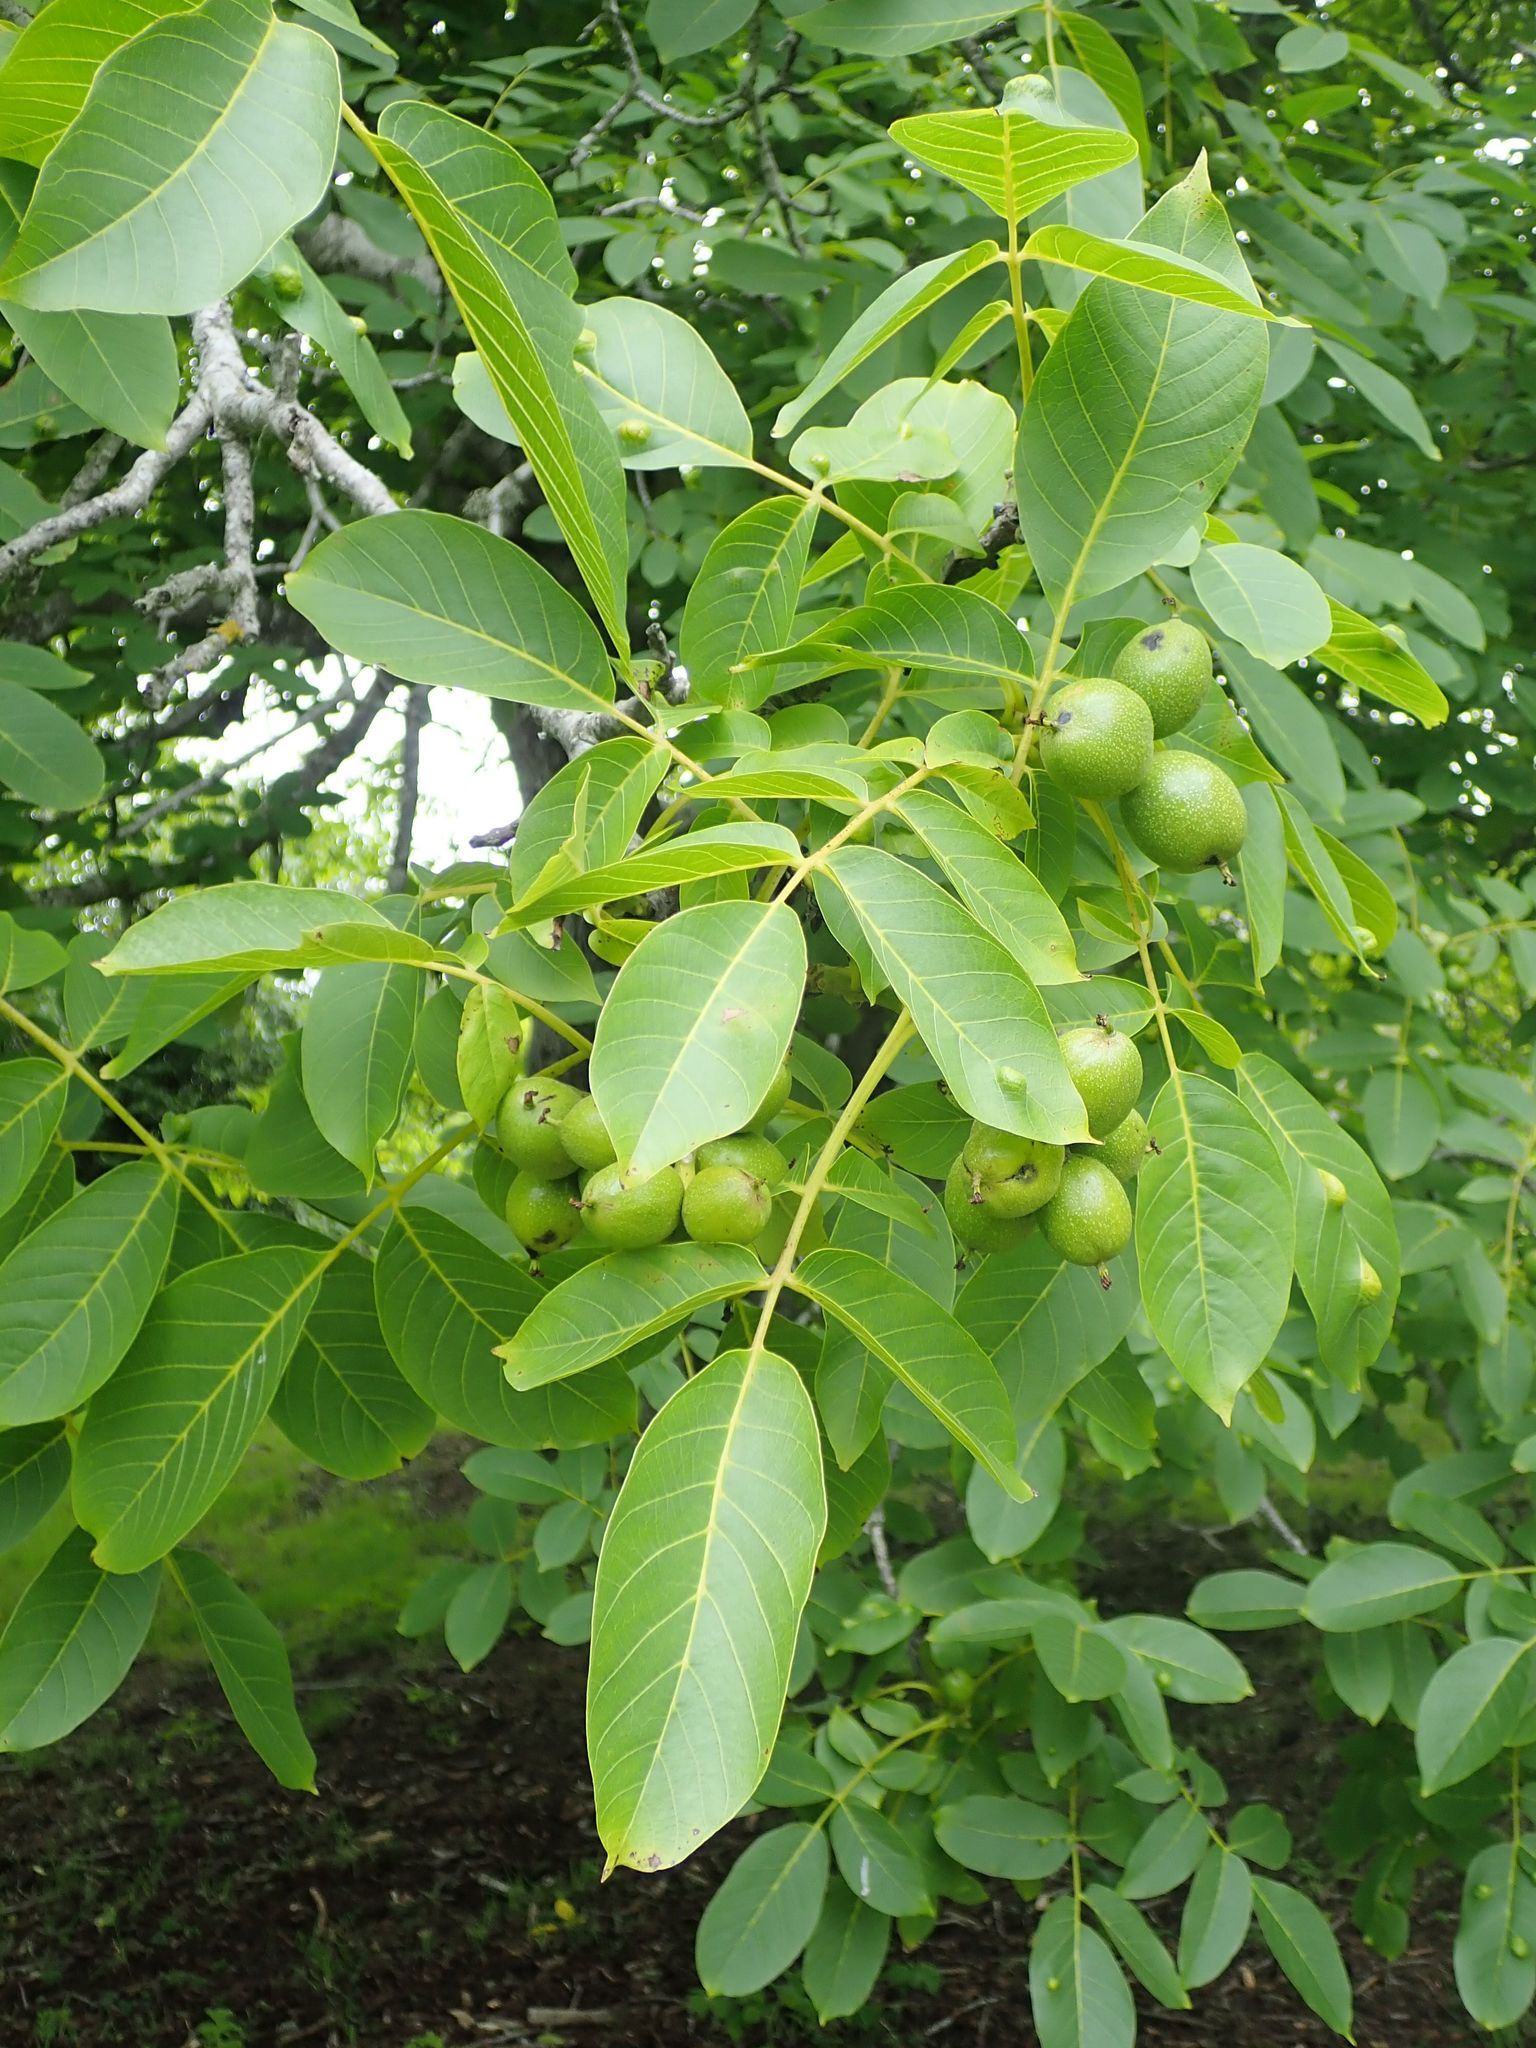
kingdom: Plantae
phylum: Tracheophyta
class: Magnoliopsida
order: Fagales
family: Juglandaceae
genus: Juglans
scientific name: Juglans regia
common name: Walnut
